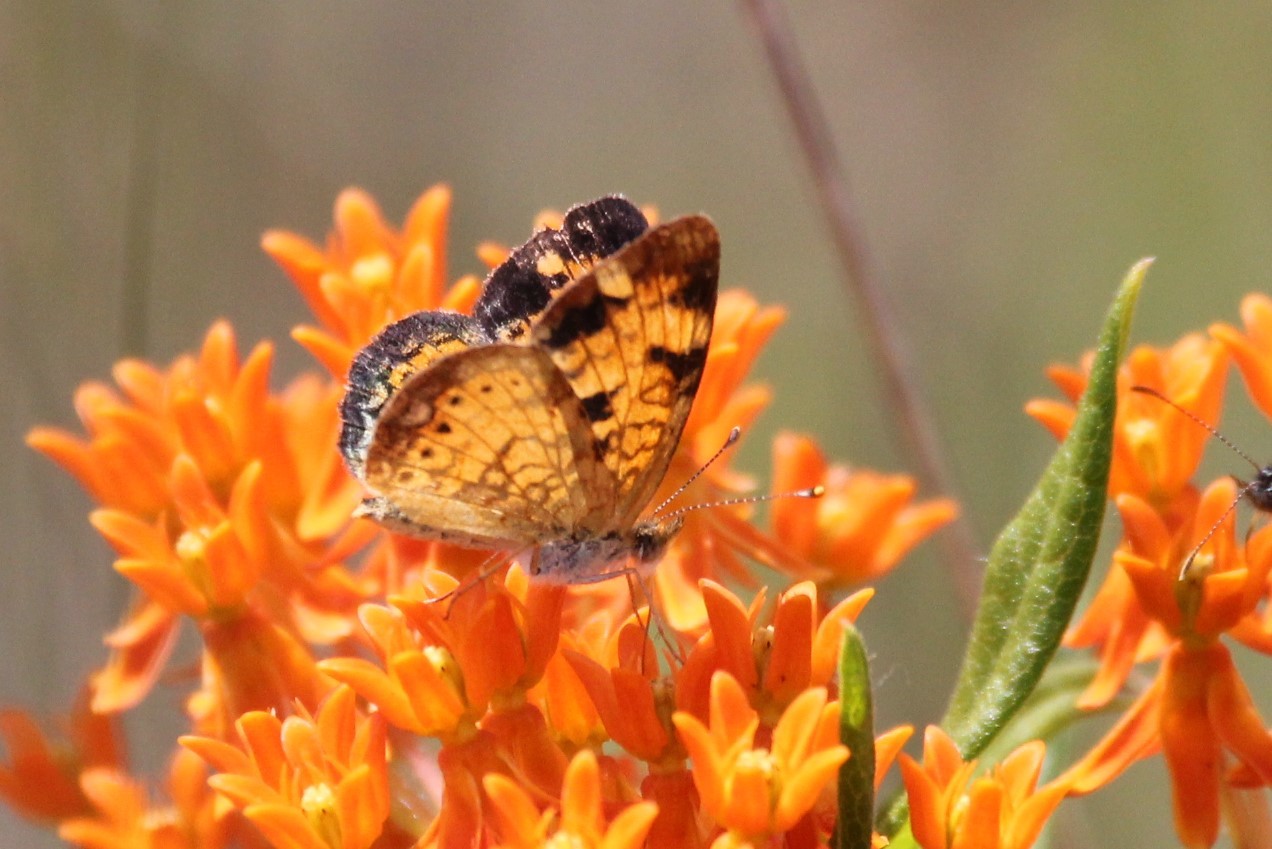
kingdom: Animalia
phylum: Arthropoda
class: Insecta
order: Lepidoptera
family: Nymphalidae
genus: Phyciodes
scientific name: Phyciodes tharos
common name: Pearl crescent
